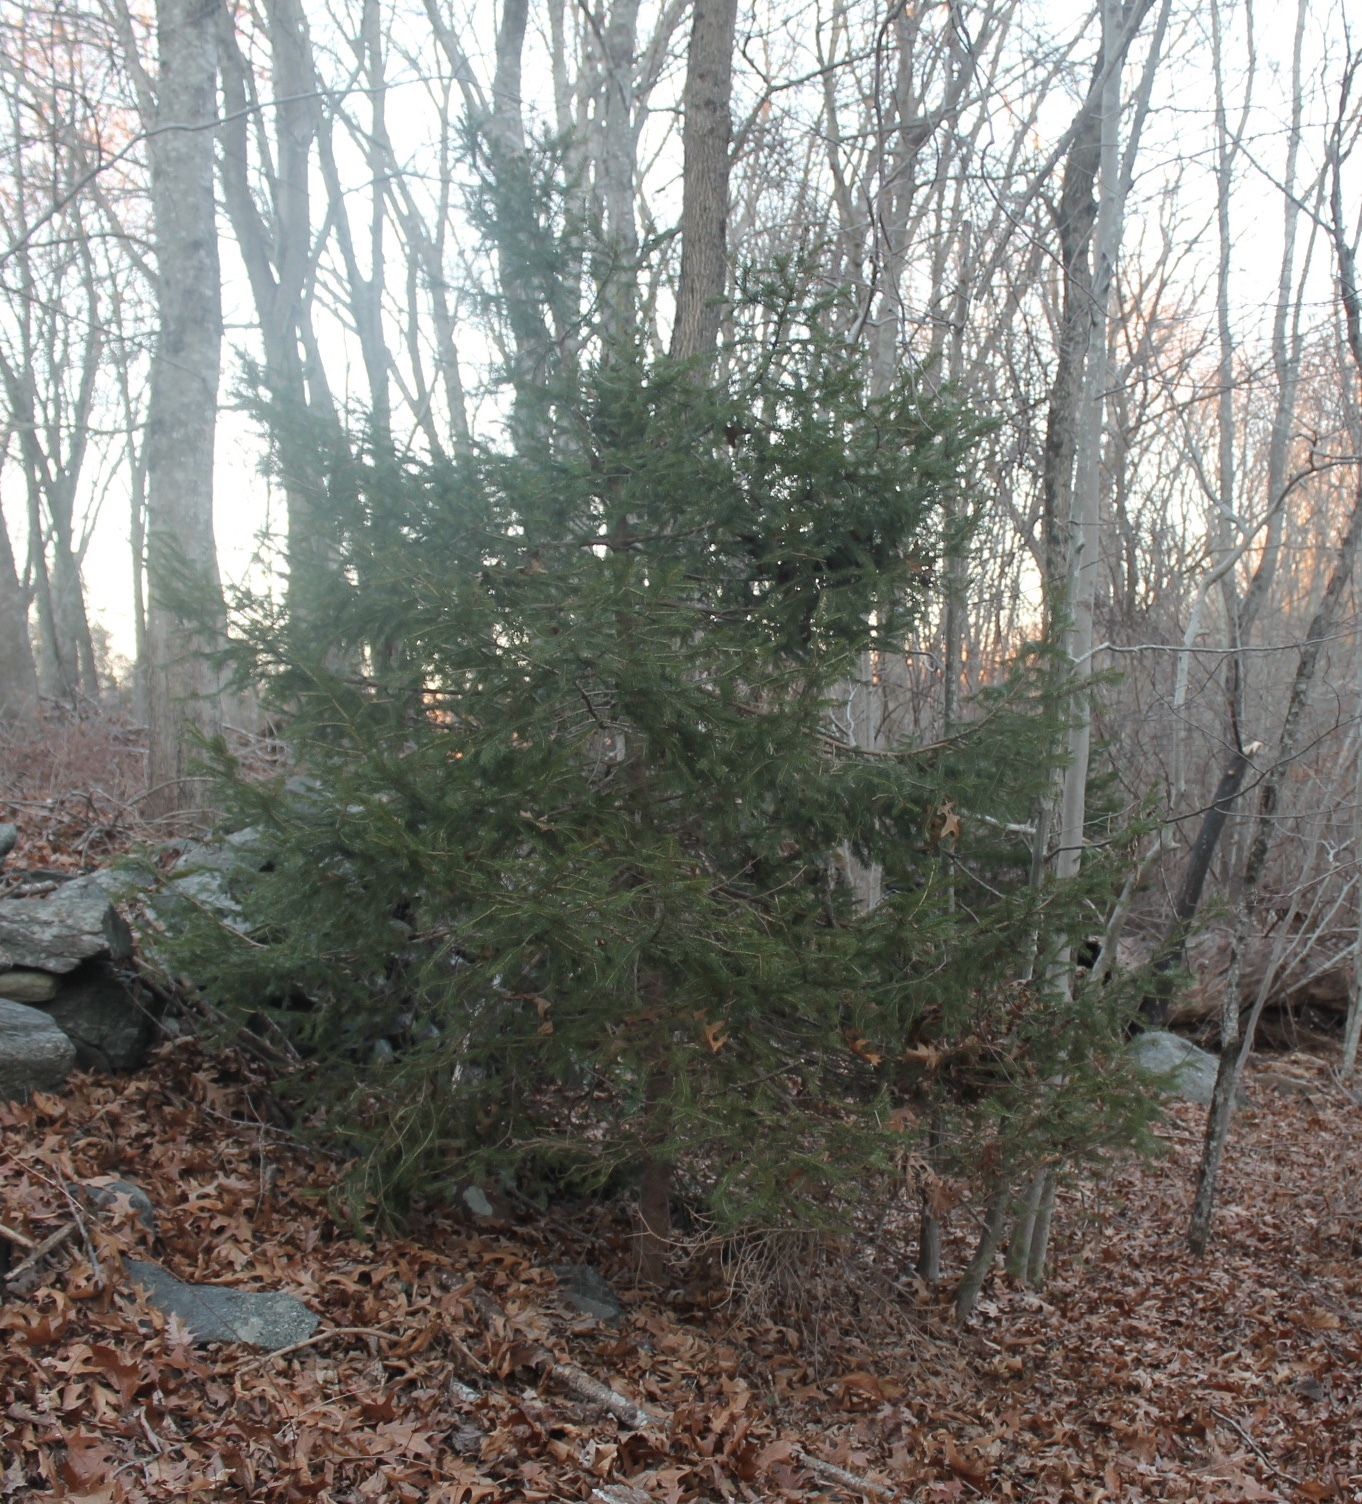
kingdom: Plantae
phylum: Tracheophyta
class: Pinopsida
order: Pinales
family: Pinaceae
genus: Picea
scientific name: Picea abies
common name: Norway spruce
